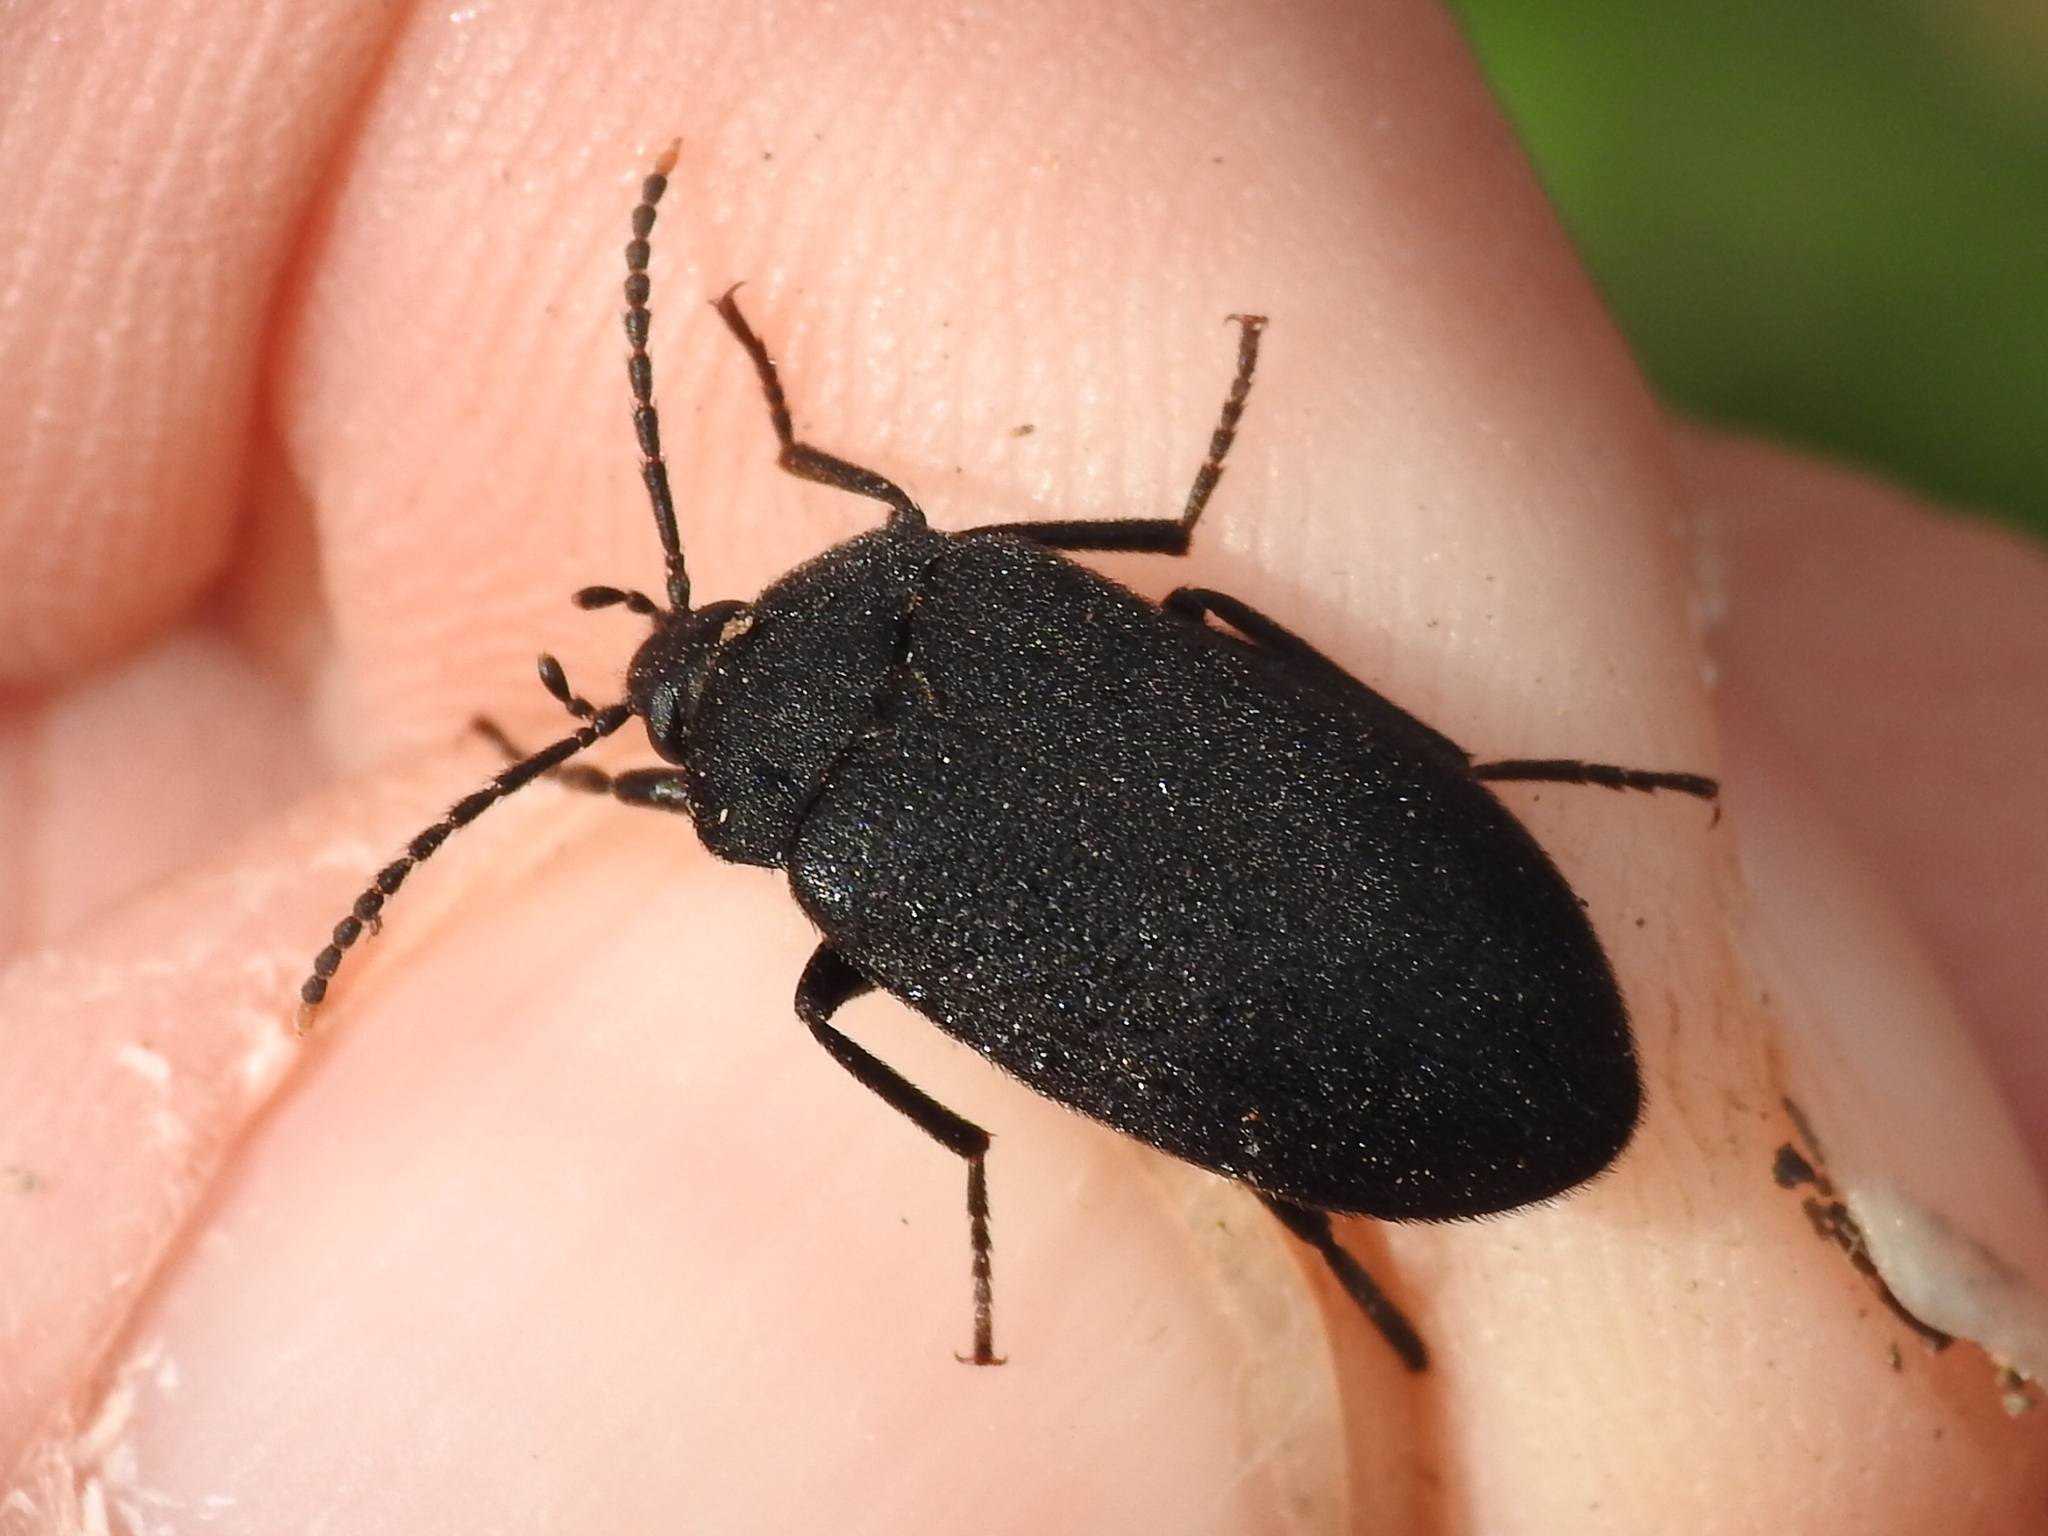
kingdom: Animalia
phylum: Arthropoda
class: Insecta
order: Coleoptera
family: Tetratomidae
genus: Penthe
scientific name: Penthe pimelia
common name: Velvety bark beetle
